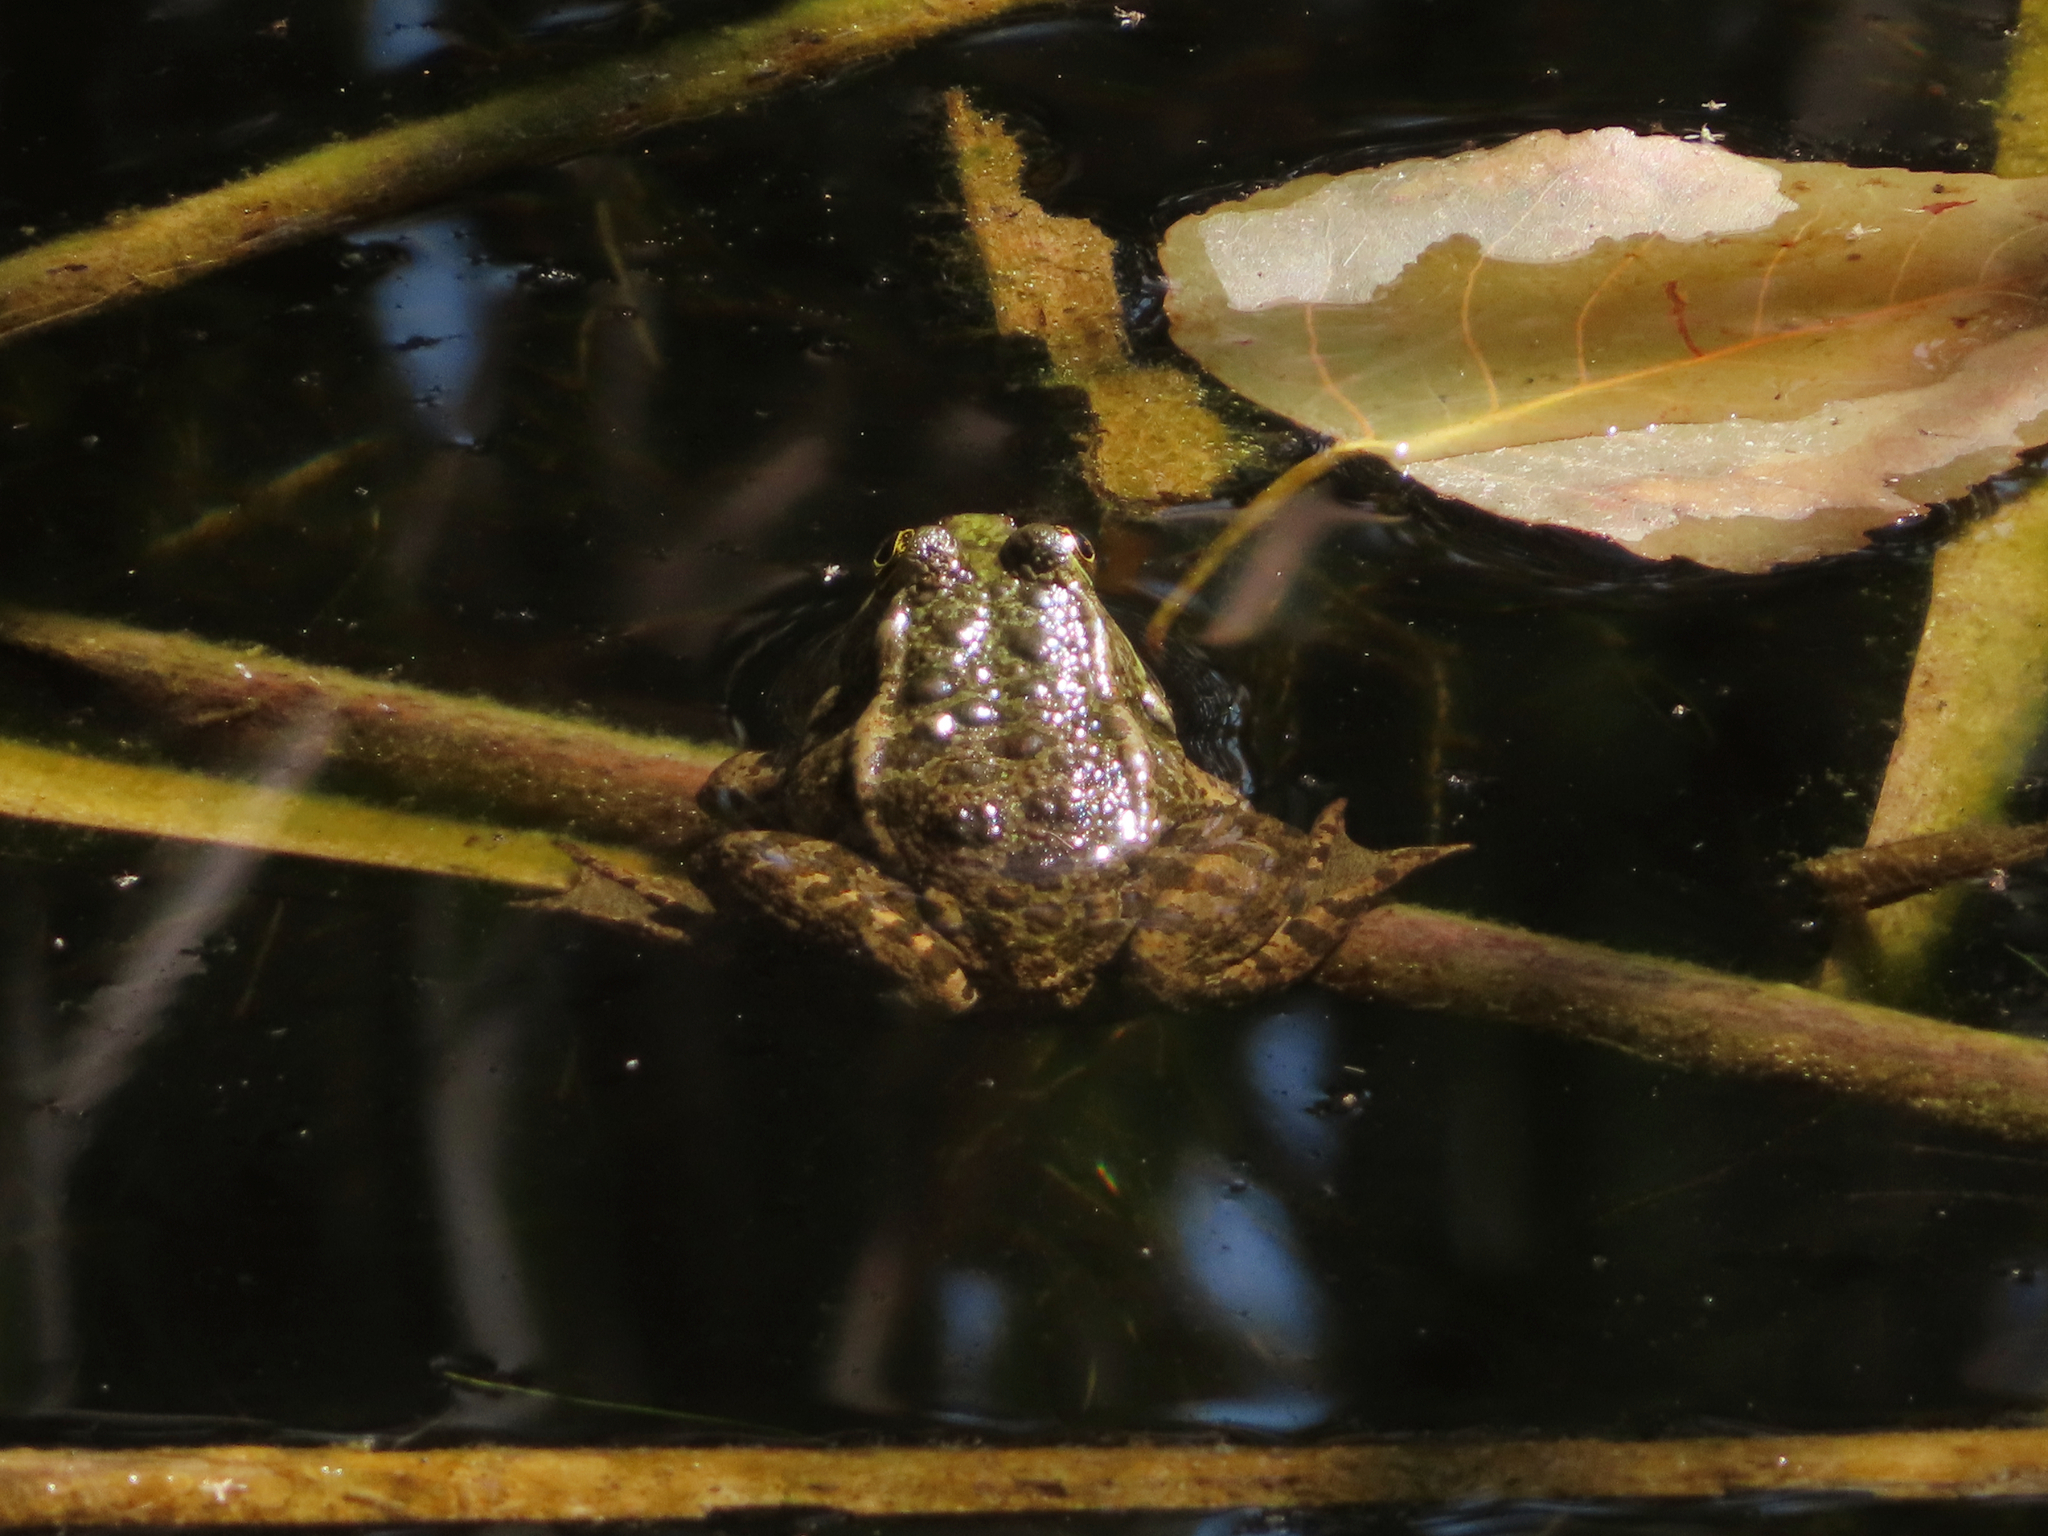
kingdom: Animalia
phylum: Chordata
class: Amphibia
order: Anura
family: Ranidae
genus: Pelophylax
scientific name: Pelophylax ridibundus
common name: Marsh frog
